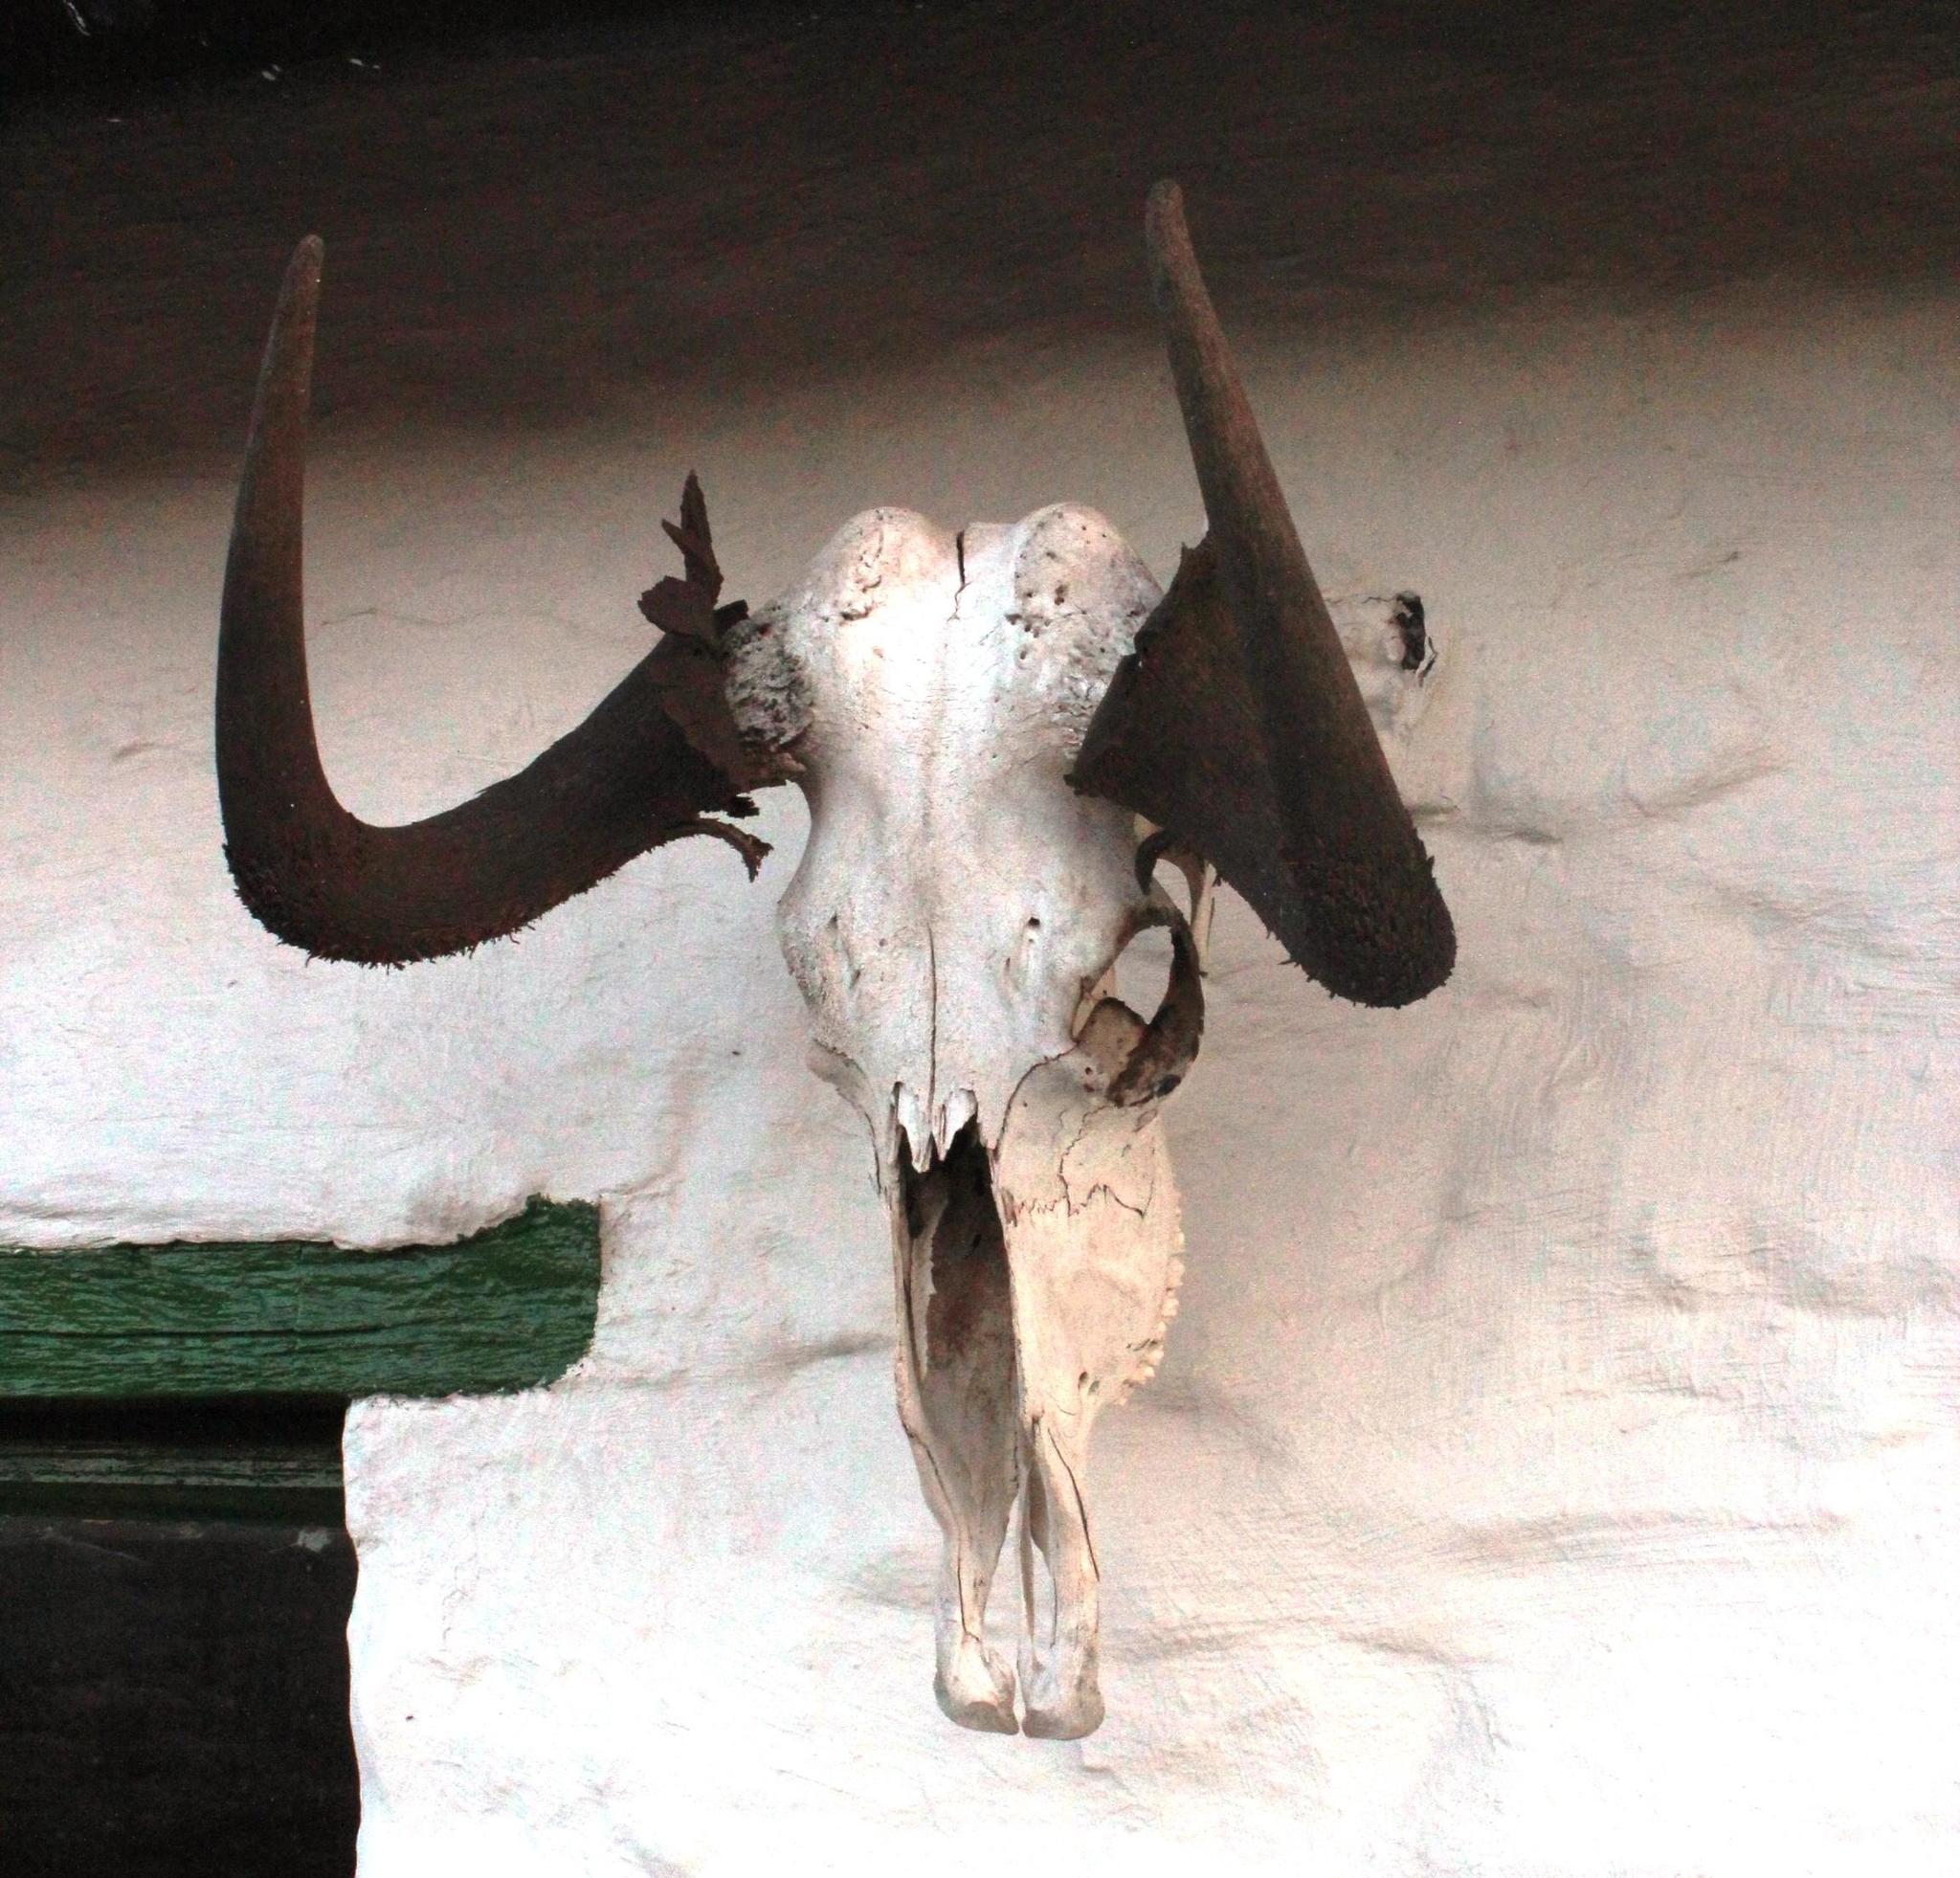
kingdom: Animalia
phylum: Chordata
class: Mammalia
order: Artiodactyla
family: Bovidae
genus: Connochaetes
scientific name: Connochaetes gnou
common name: Black wildebeest
